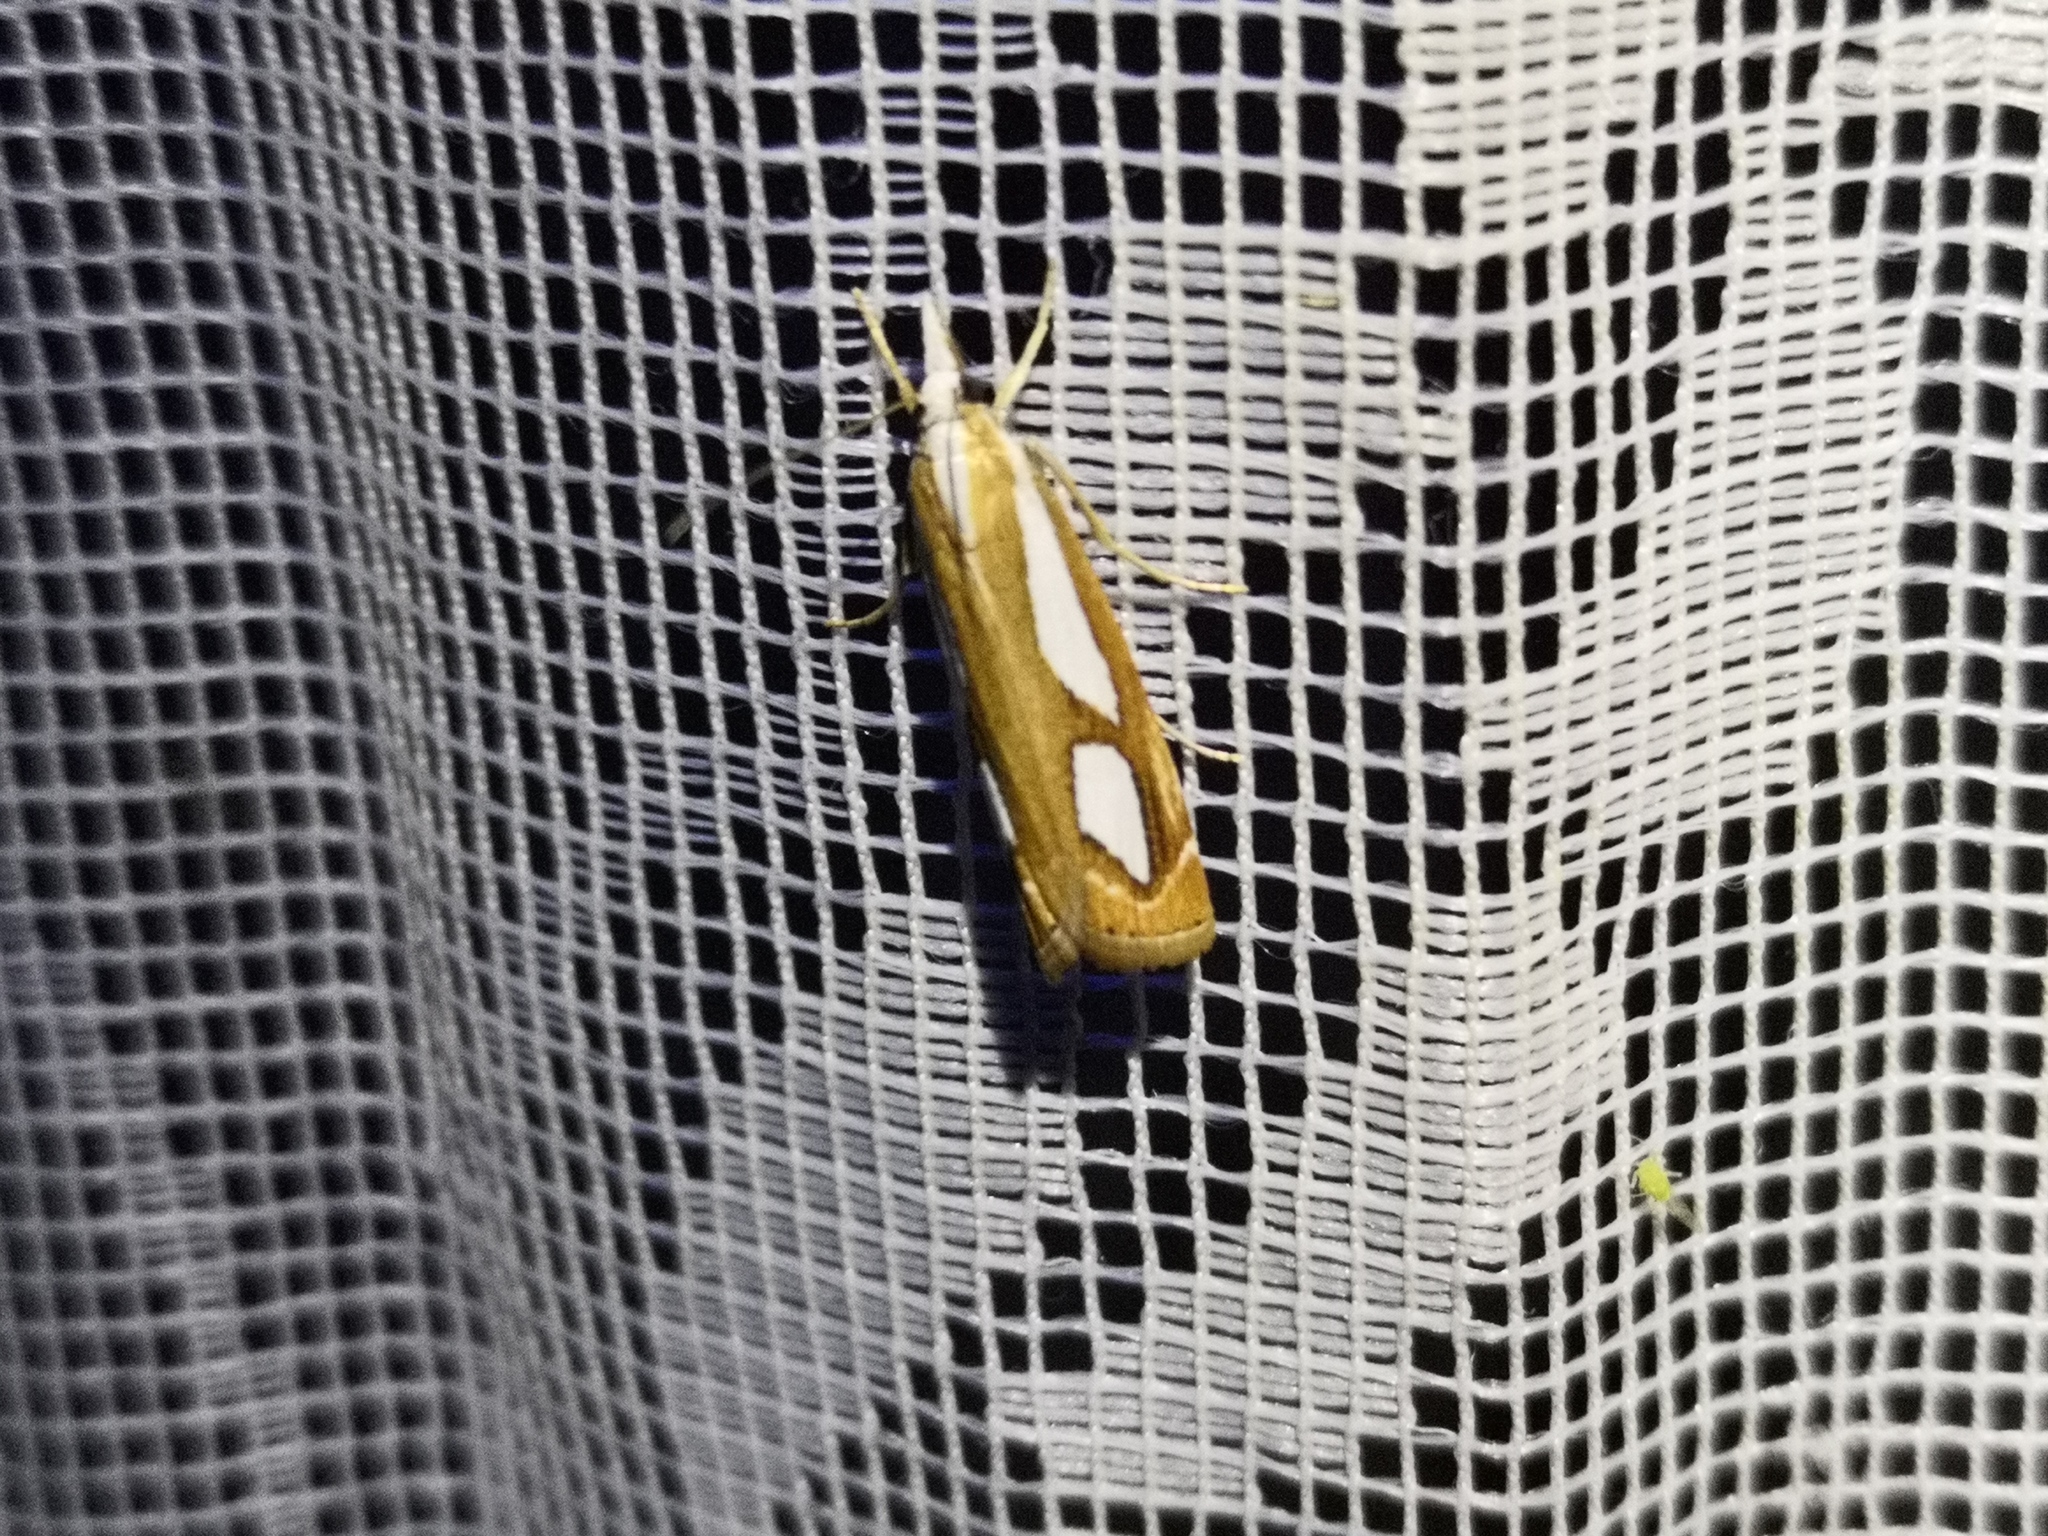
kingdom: Animalia
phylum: Arthropoda
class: Insecta
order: Lepidoptera
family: Crambidae
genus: Catoptria
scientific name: Catoptria mytilella
